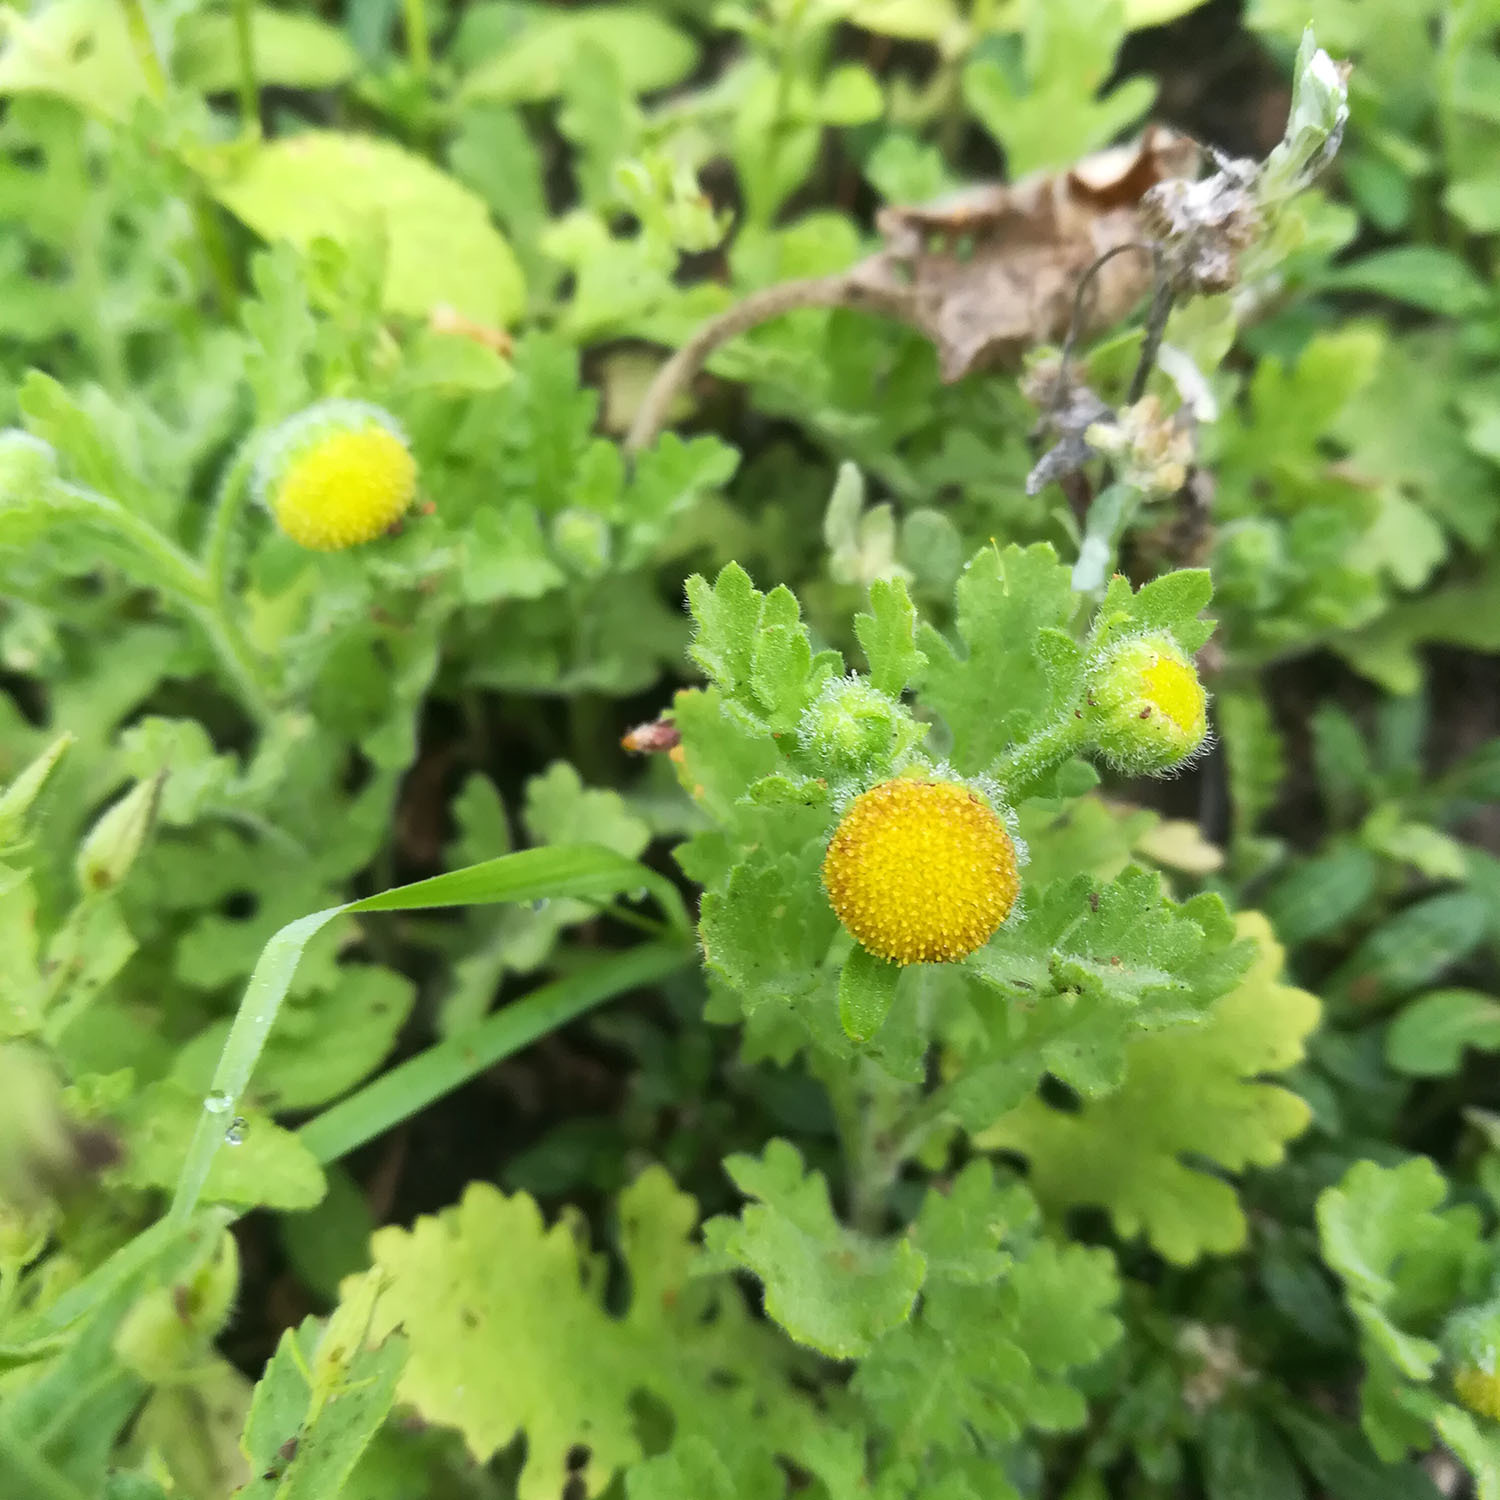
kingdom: Plantae
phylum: Tracheophyta
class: Magnoliopsida
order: Asterales
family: Asteraceae
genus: Grangea
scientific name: Grangea maderaspatana
